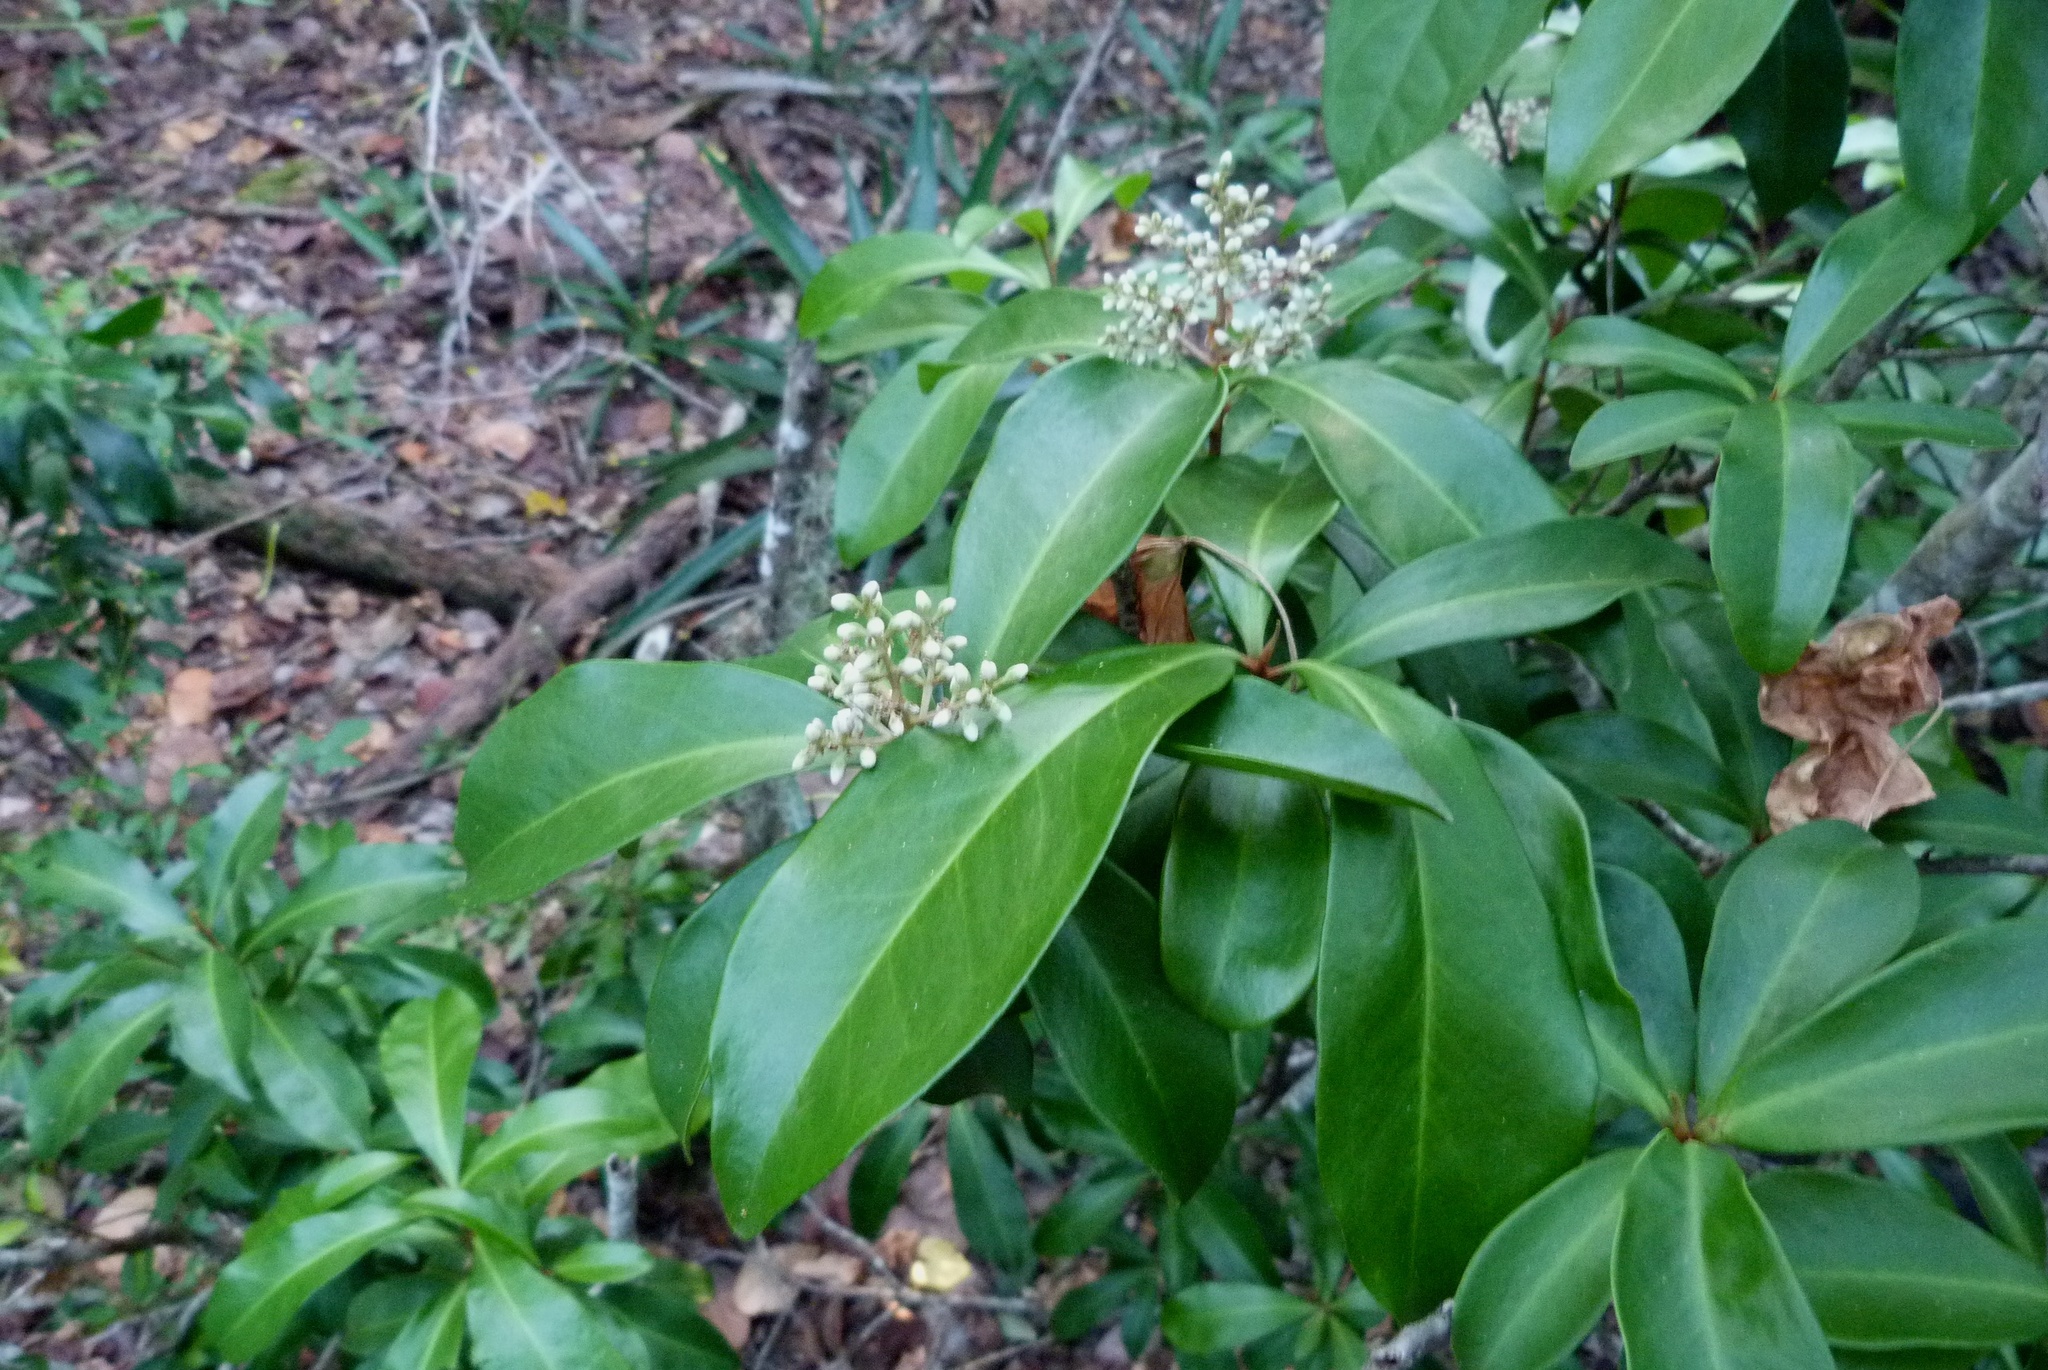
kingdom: Plantae
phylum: Tracheophyta
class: Magnoliopsida
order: Ericales
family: Primulaceae
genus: Ardisia
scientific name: Ardisia escallonioides
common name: Island marlberry
